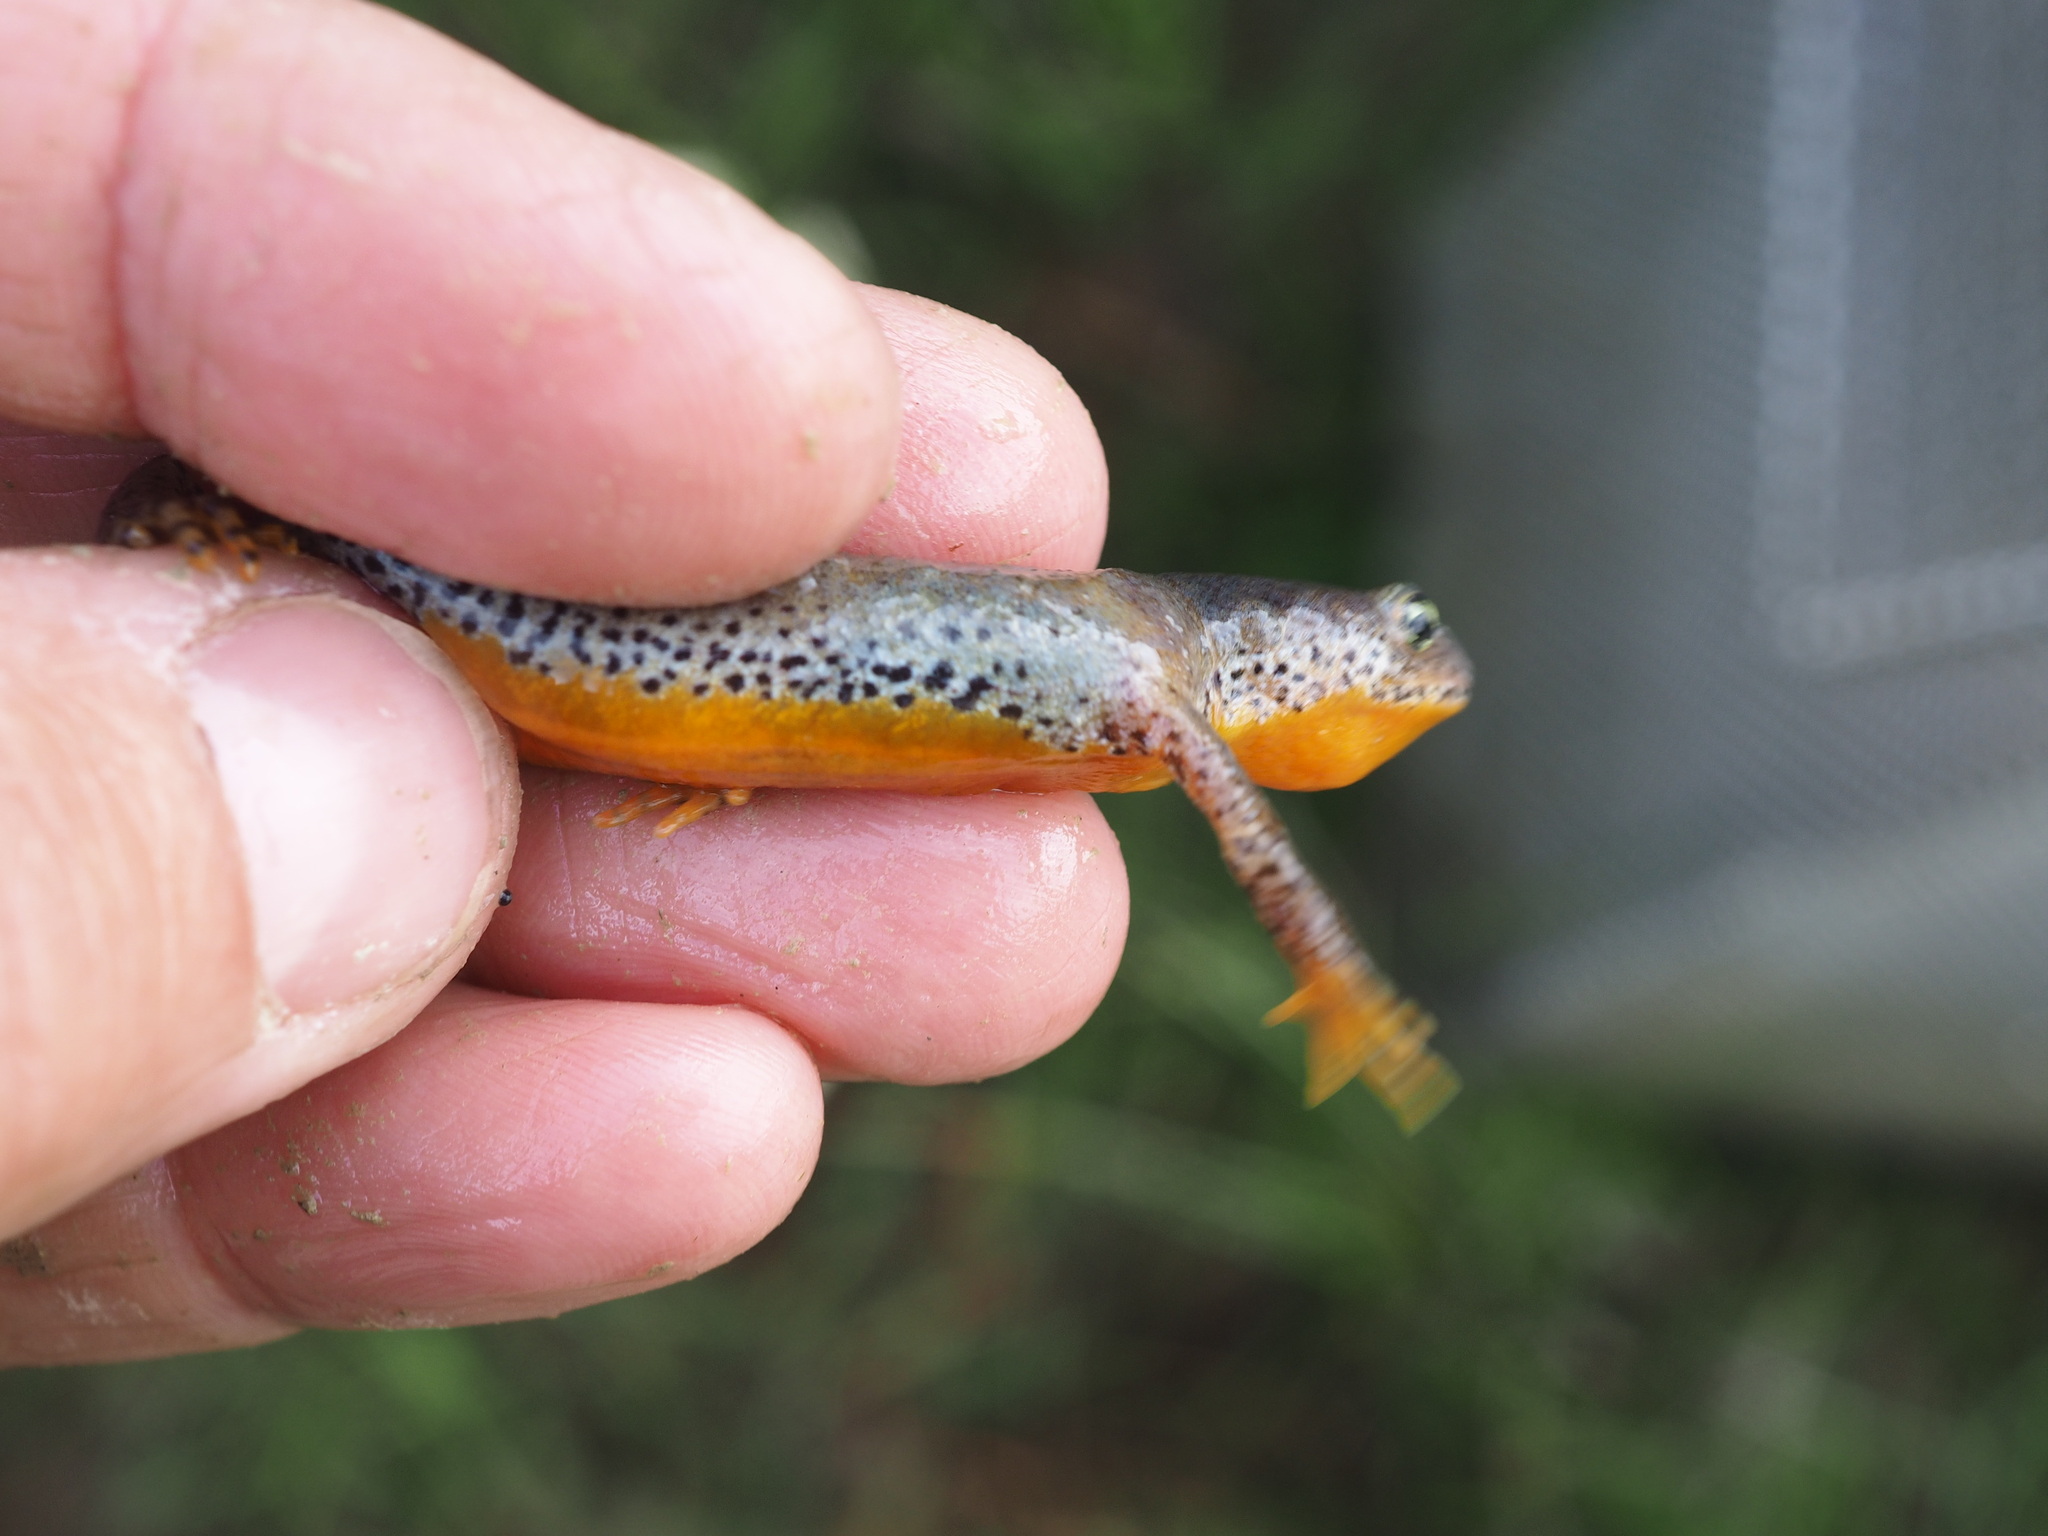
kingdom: Animalia
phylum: Chordata
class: Amphibia
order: Caudata
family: Salamandridae
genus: Ichthyosaura
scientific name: Ichthyosaura alpestris
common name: Alpine newt
